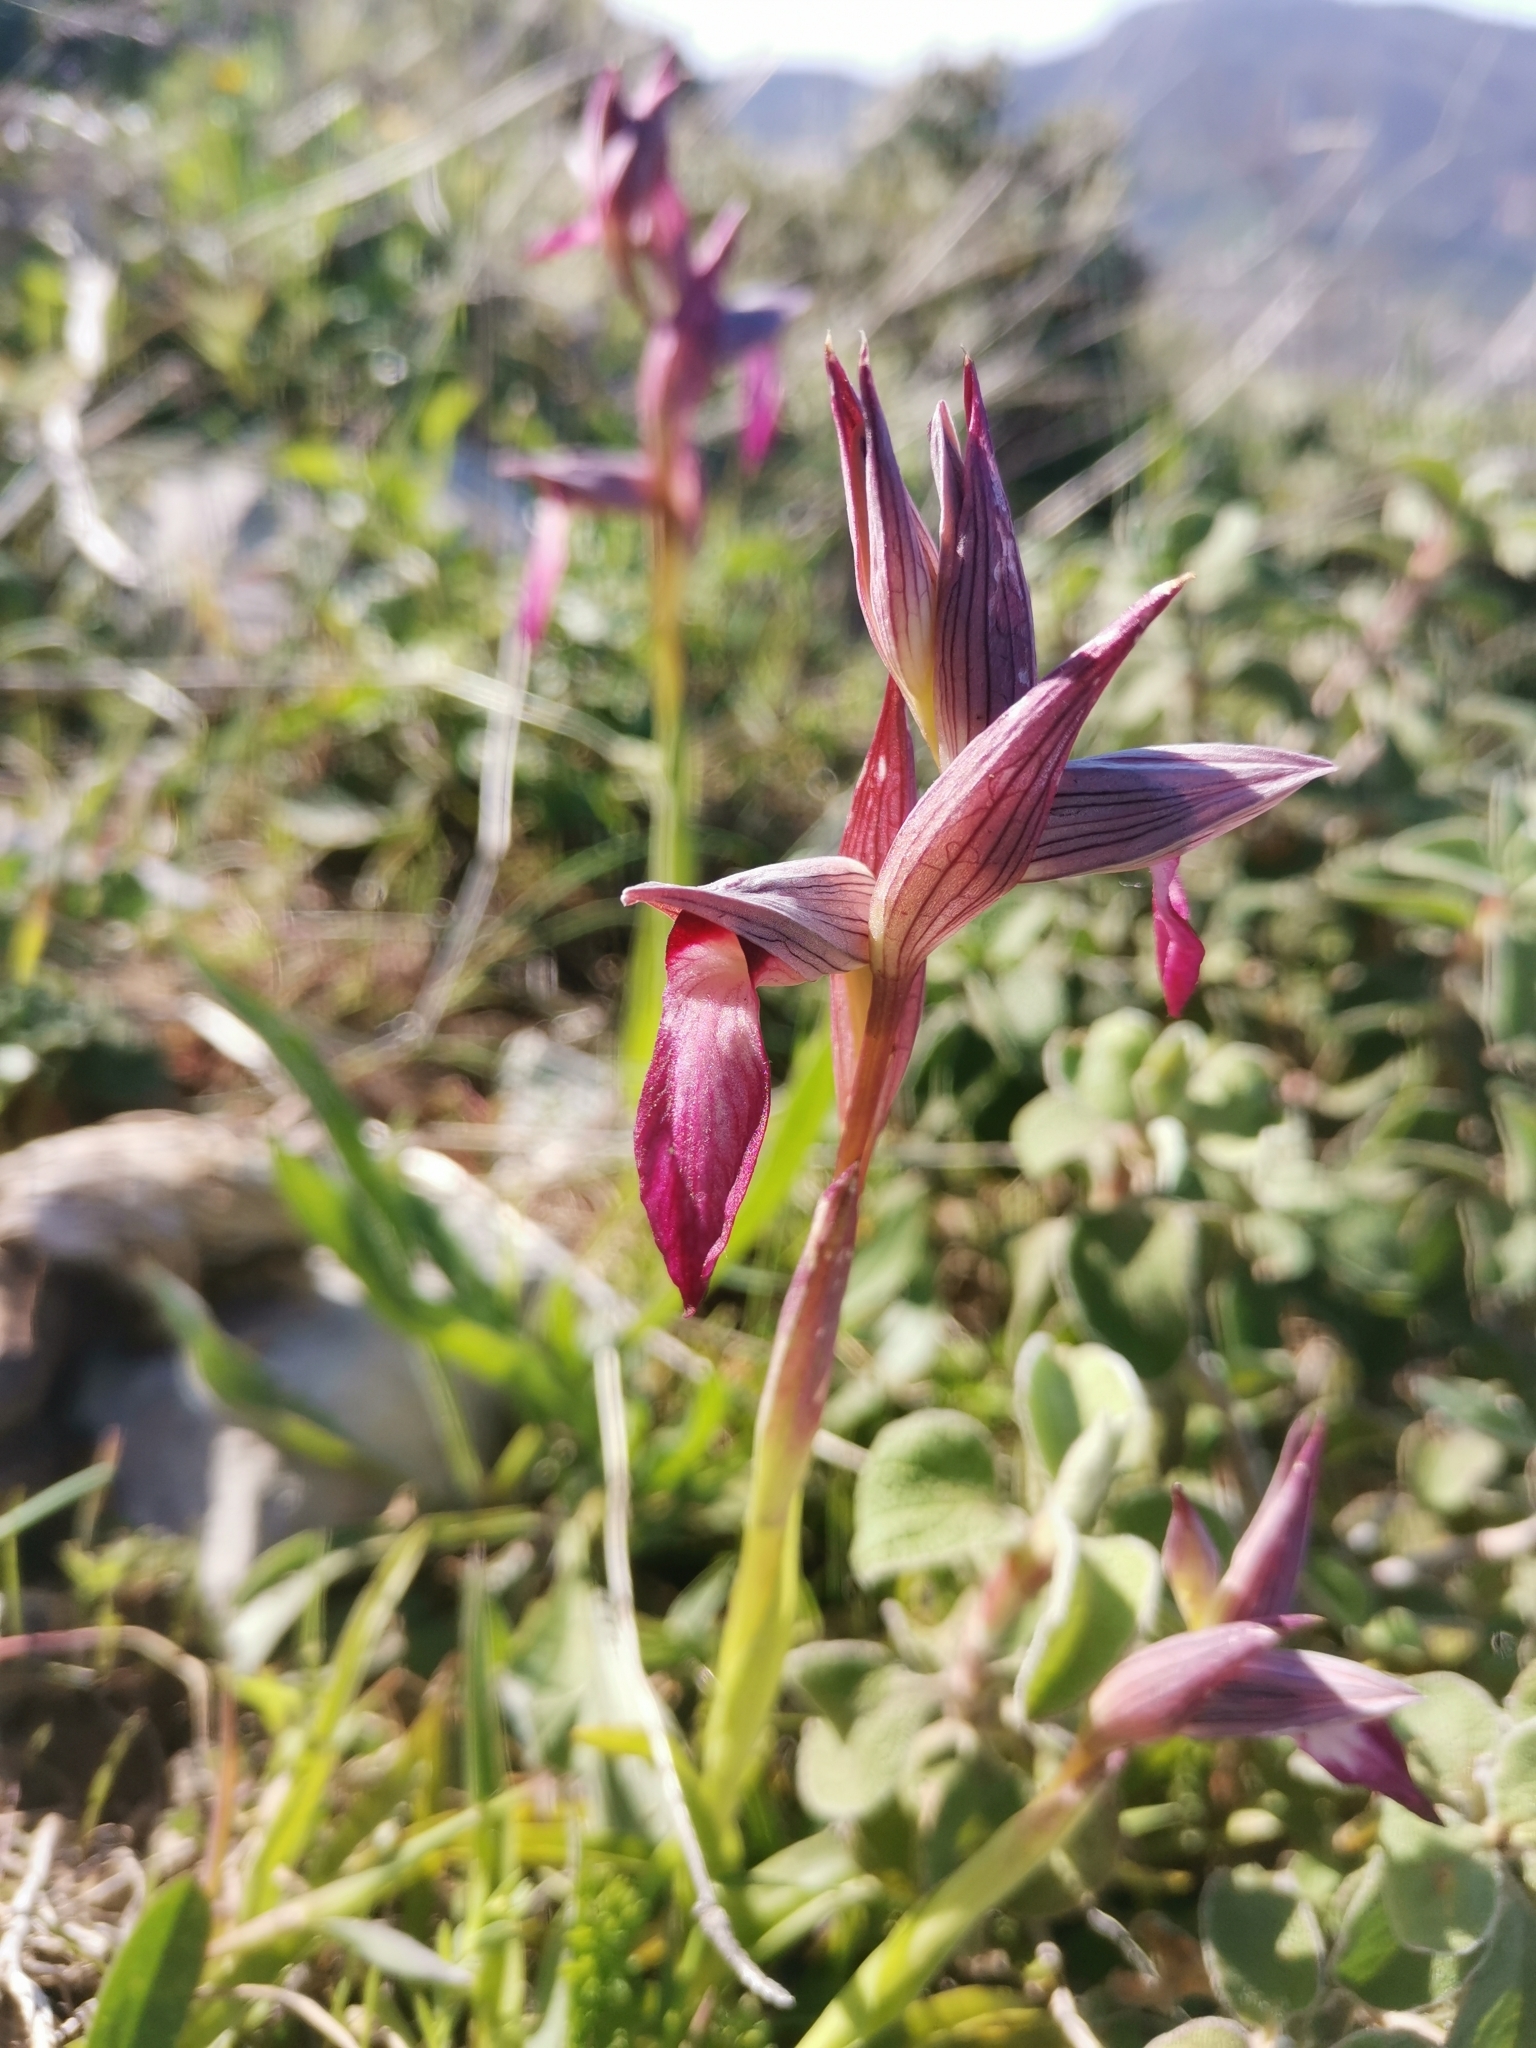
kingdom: Plantae
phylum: Tracheophyta
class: Liliopsida
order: Asparagales
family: Orchidaceae
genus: Serapias
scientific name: Serapias lingua
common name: Tongue-orchid
